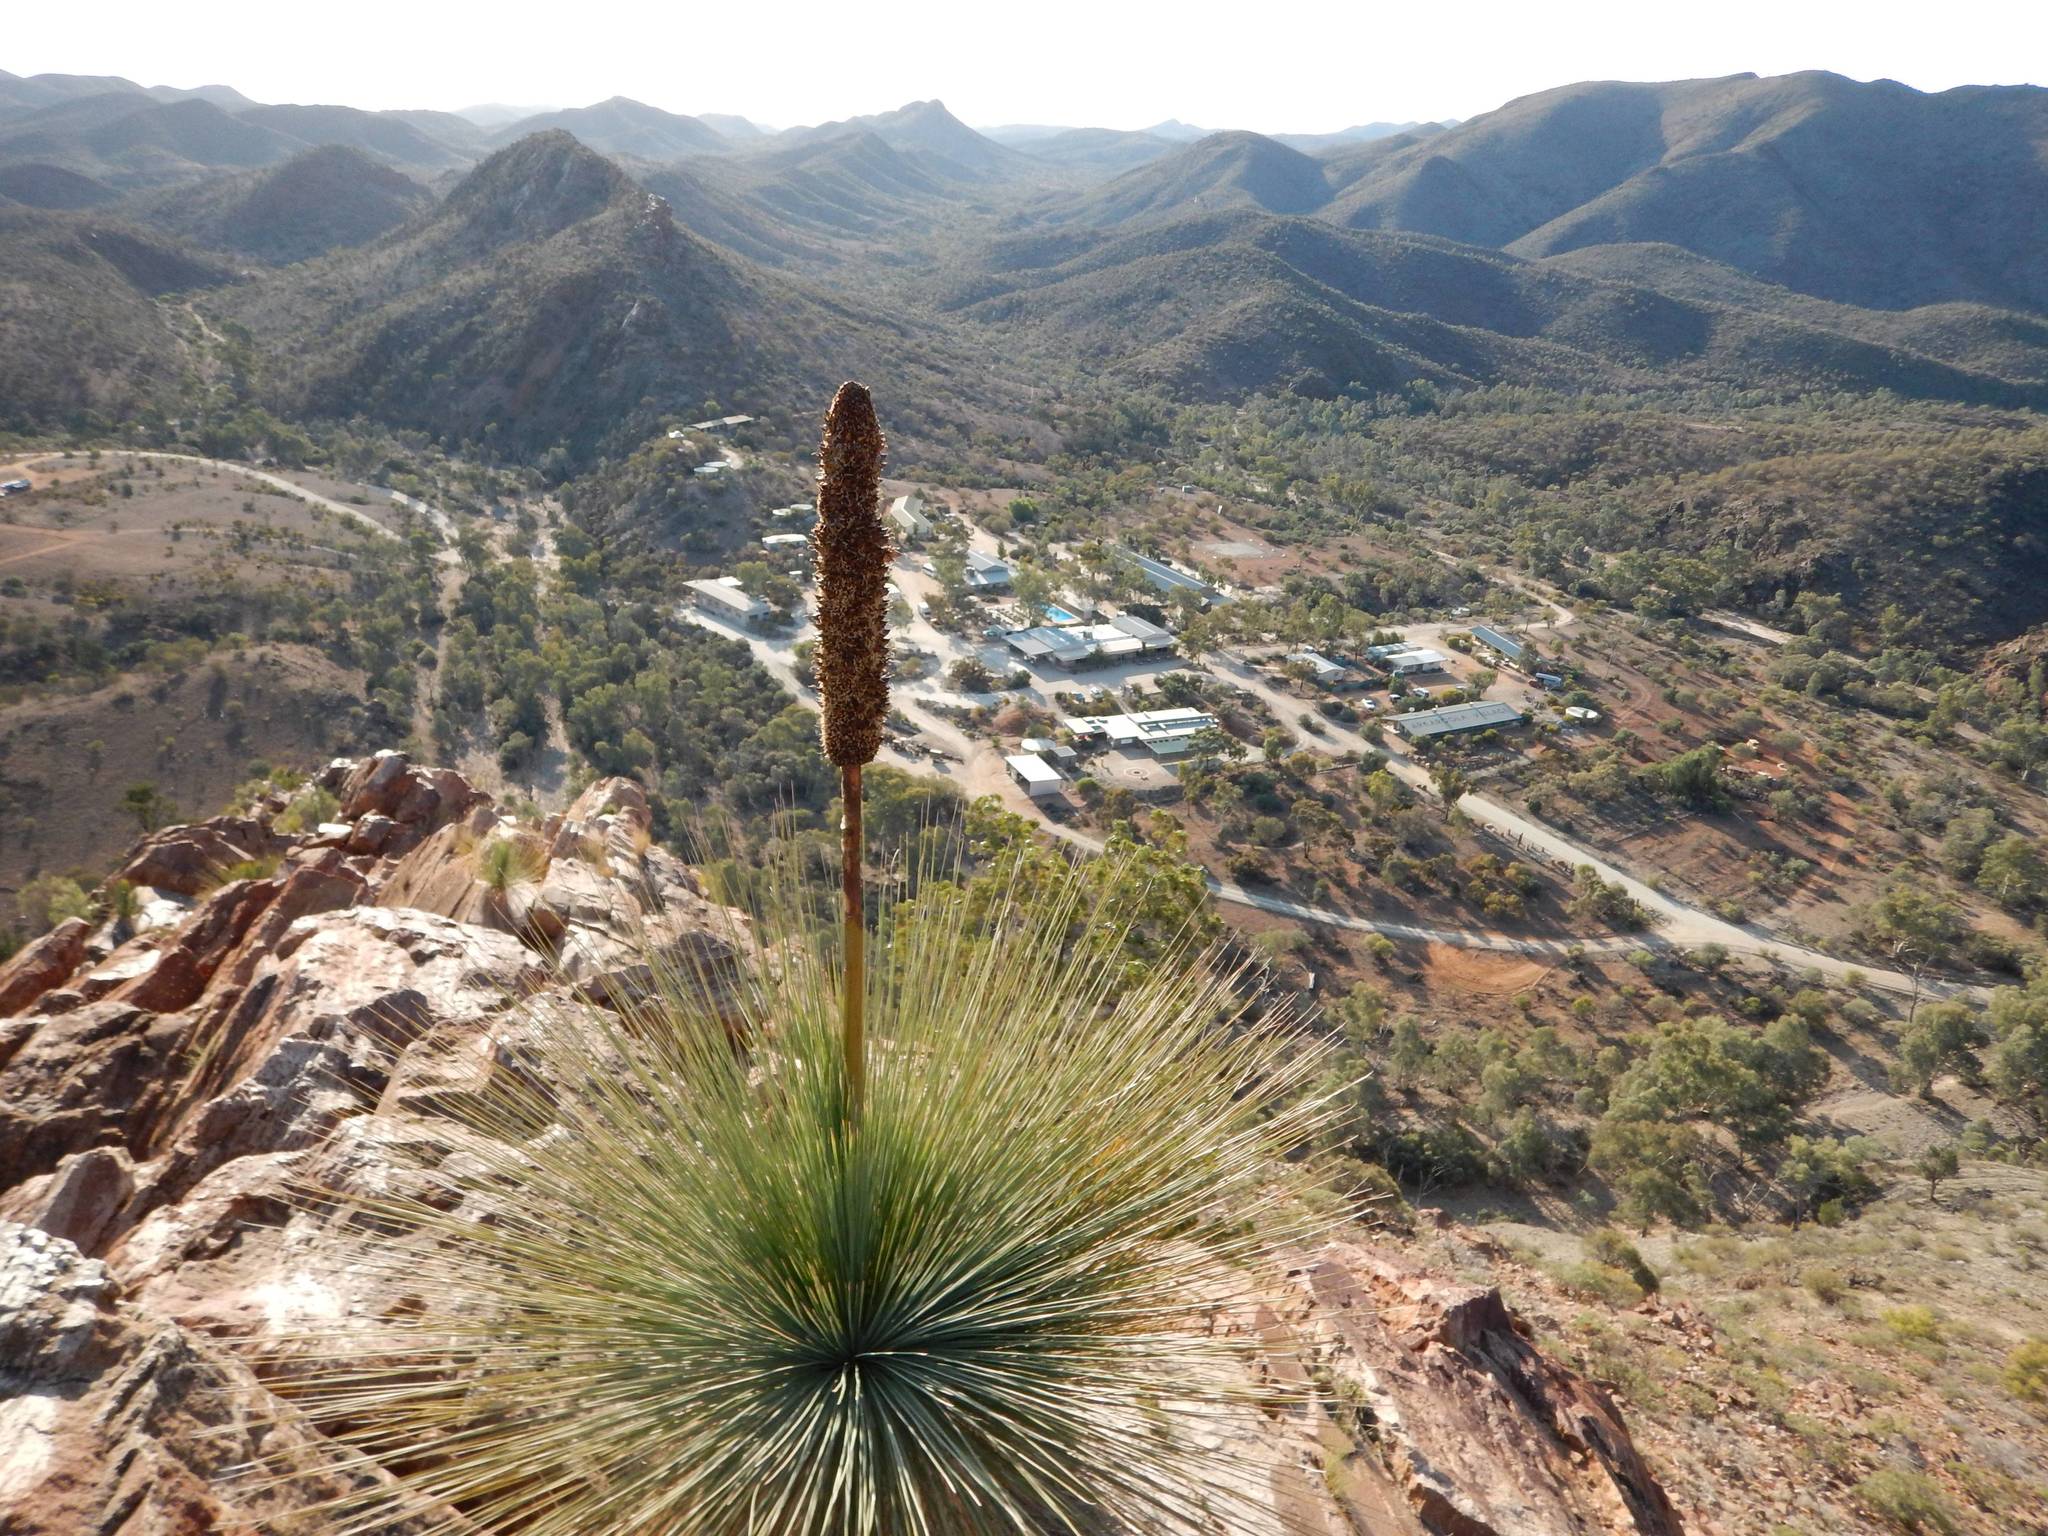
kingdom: Plantae
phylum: Tracheophyta
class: Liliopsida
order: Asparagales
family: Asphodelaceae
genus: Xanthorrhoea
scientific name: Xanthorrhoea quadrangulata
